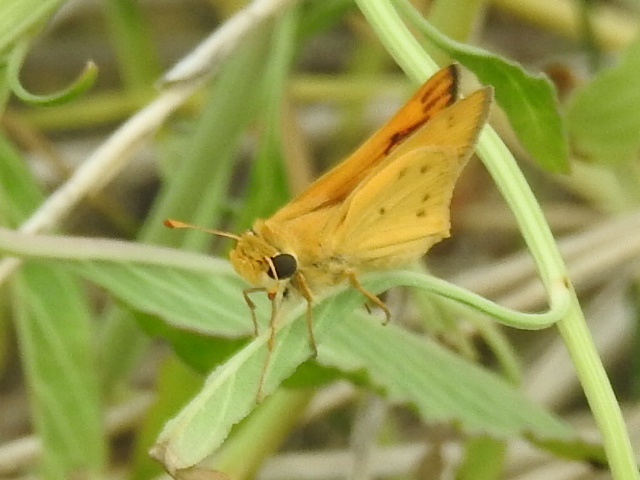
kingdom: Animalia
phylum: Arthropoda
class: Insecta
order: Lepidoptera
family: Hesperiidae
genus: Hylephila
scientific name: Hylephila phyleus
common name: Fiery skipper
